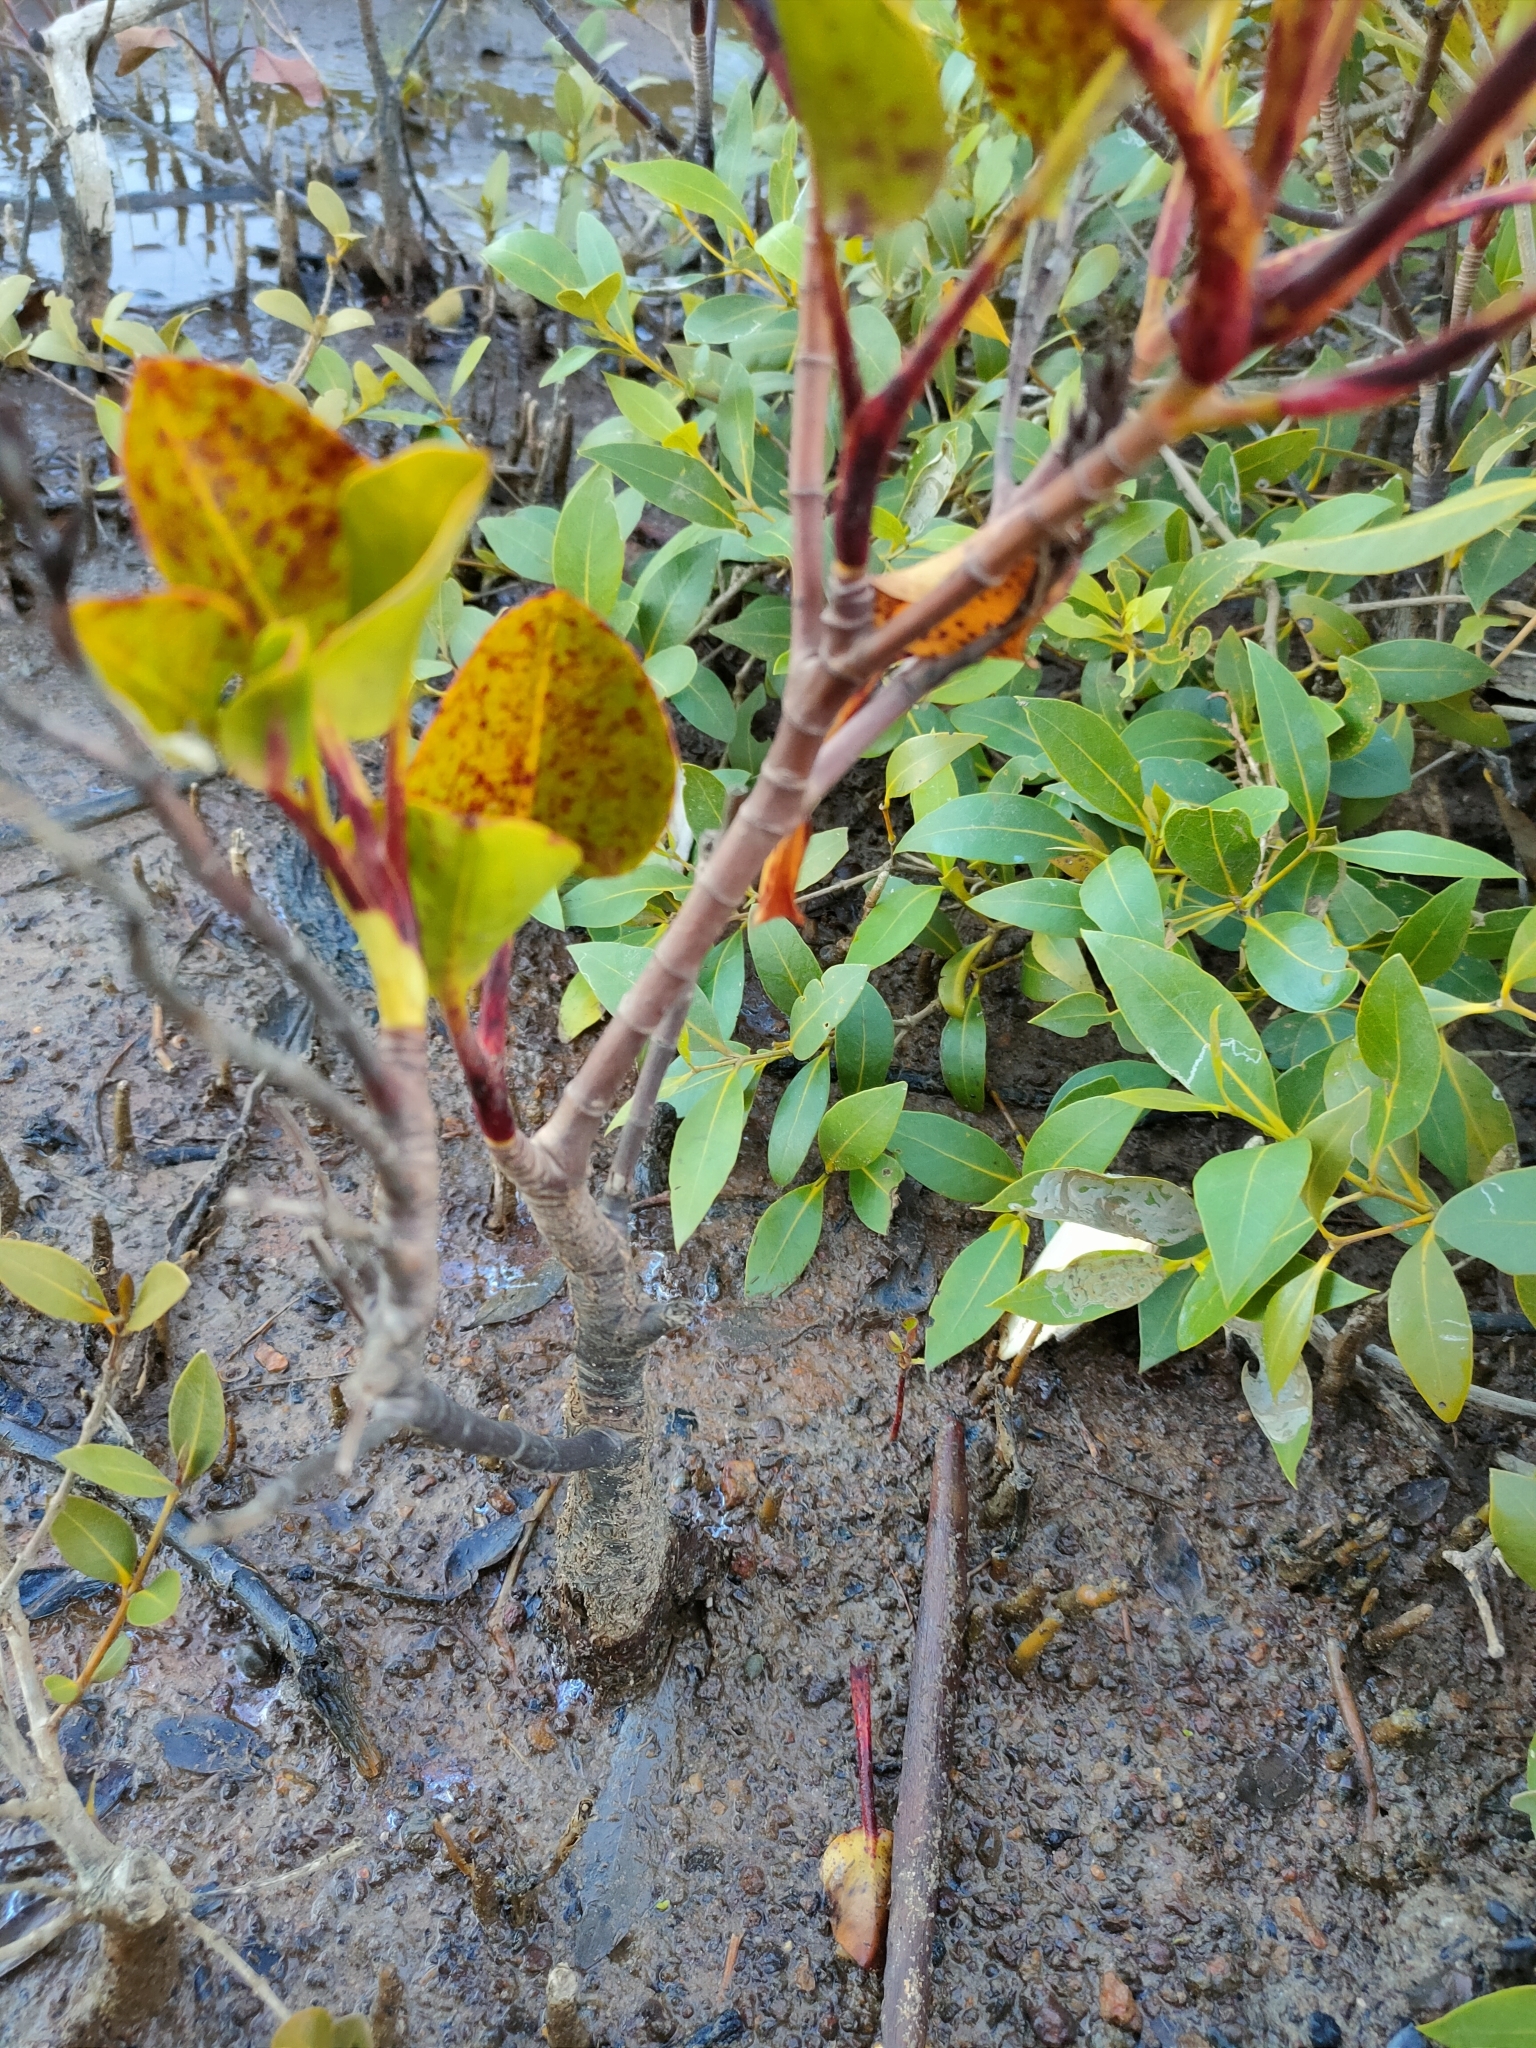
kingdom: Plantae
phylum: Tracheophyta
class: Magnoliopsida
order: Caryophyllales
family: Plumbaginaceae
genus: Aegialitis
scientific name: Aegialitis annulata
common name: Club mangrove
